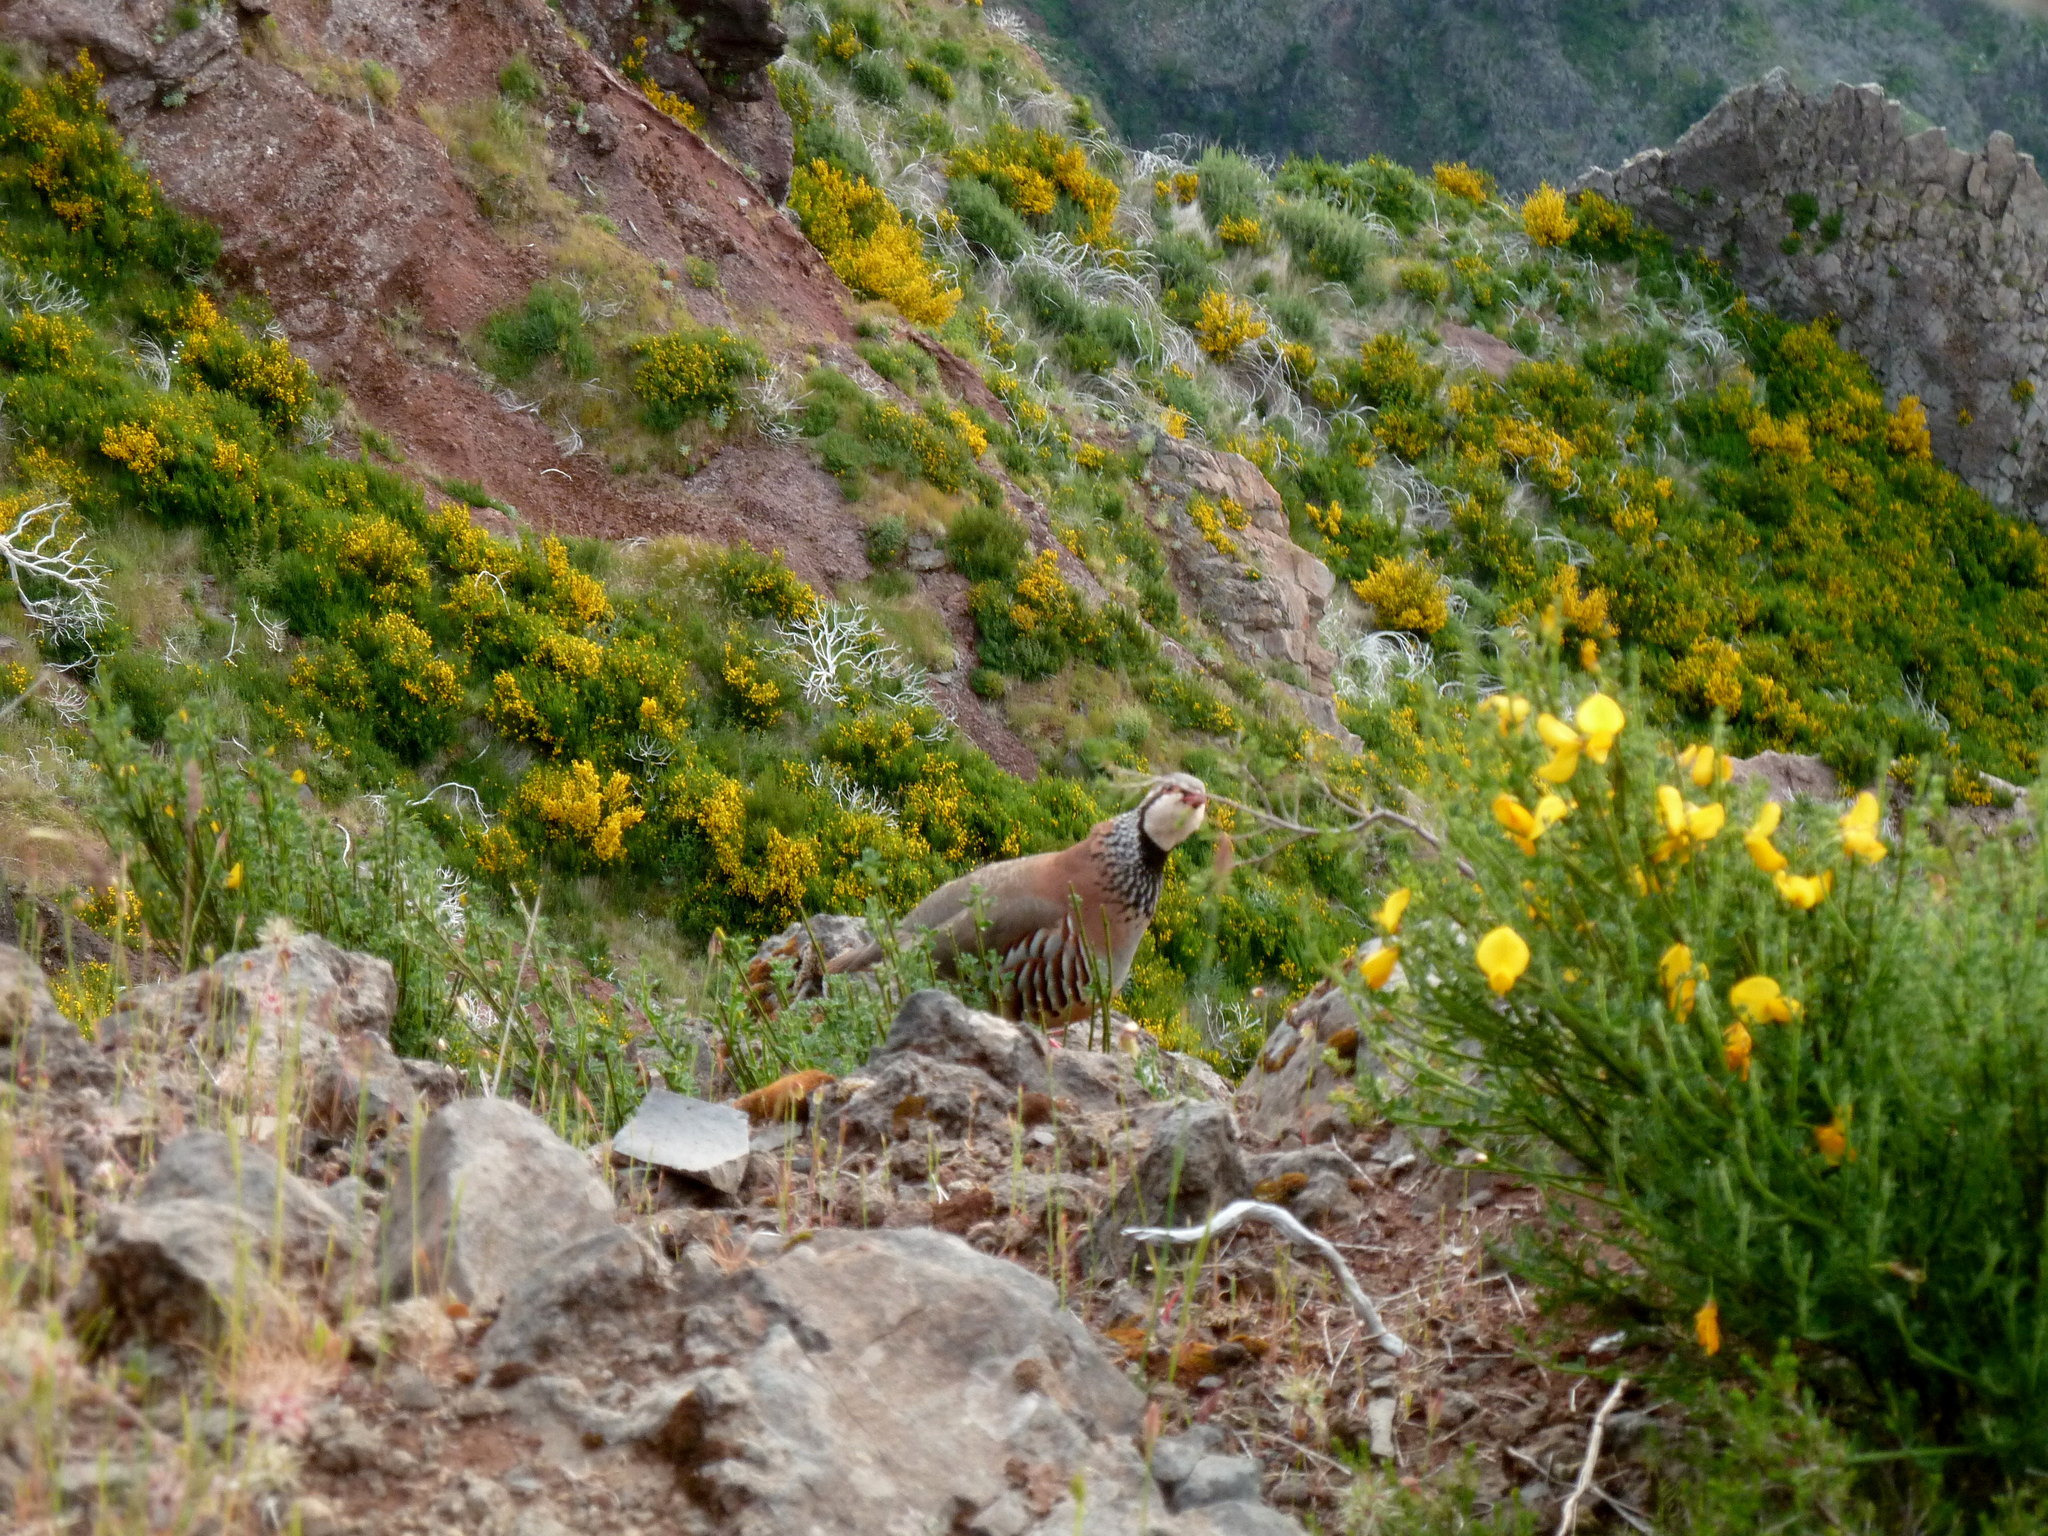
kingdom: Animalia
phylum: Chordata
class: Aves
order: Galliformes
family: Phasianidae
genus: Alectoris
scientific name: Alectoris rufa
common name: Red-legged partridge
